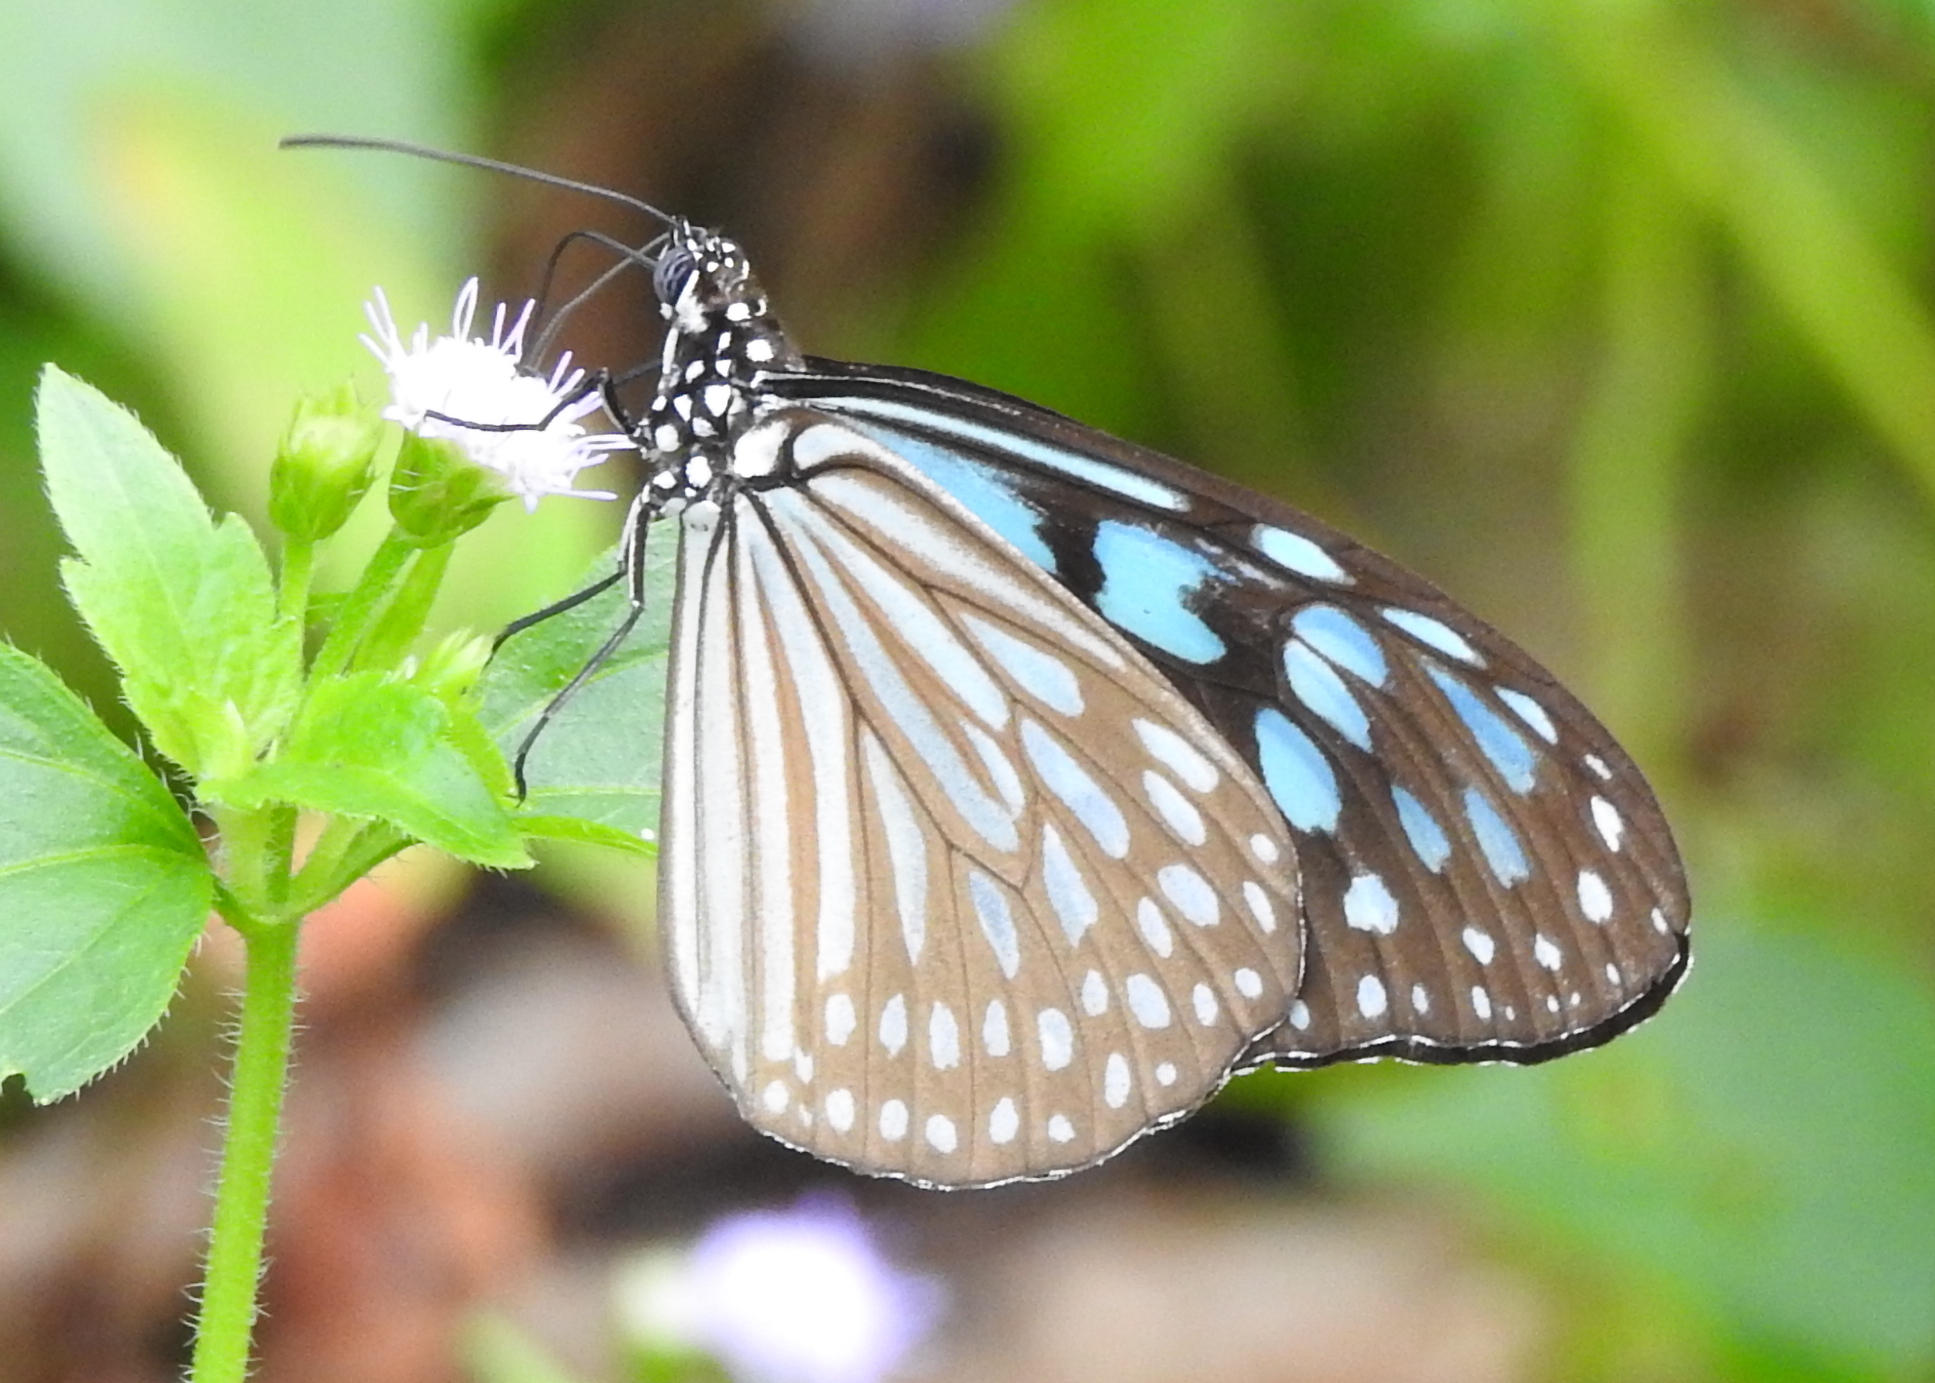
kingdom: Animalia
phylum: Arthropoda
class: Insecta
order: Lepidoptera
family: Nymphalidae
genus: Ideopsis
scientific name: Ideopsis similis
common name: Ceylon blue glassy tiger
